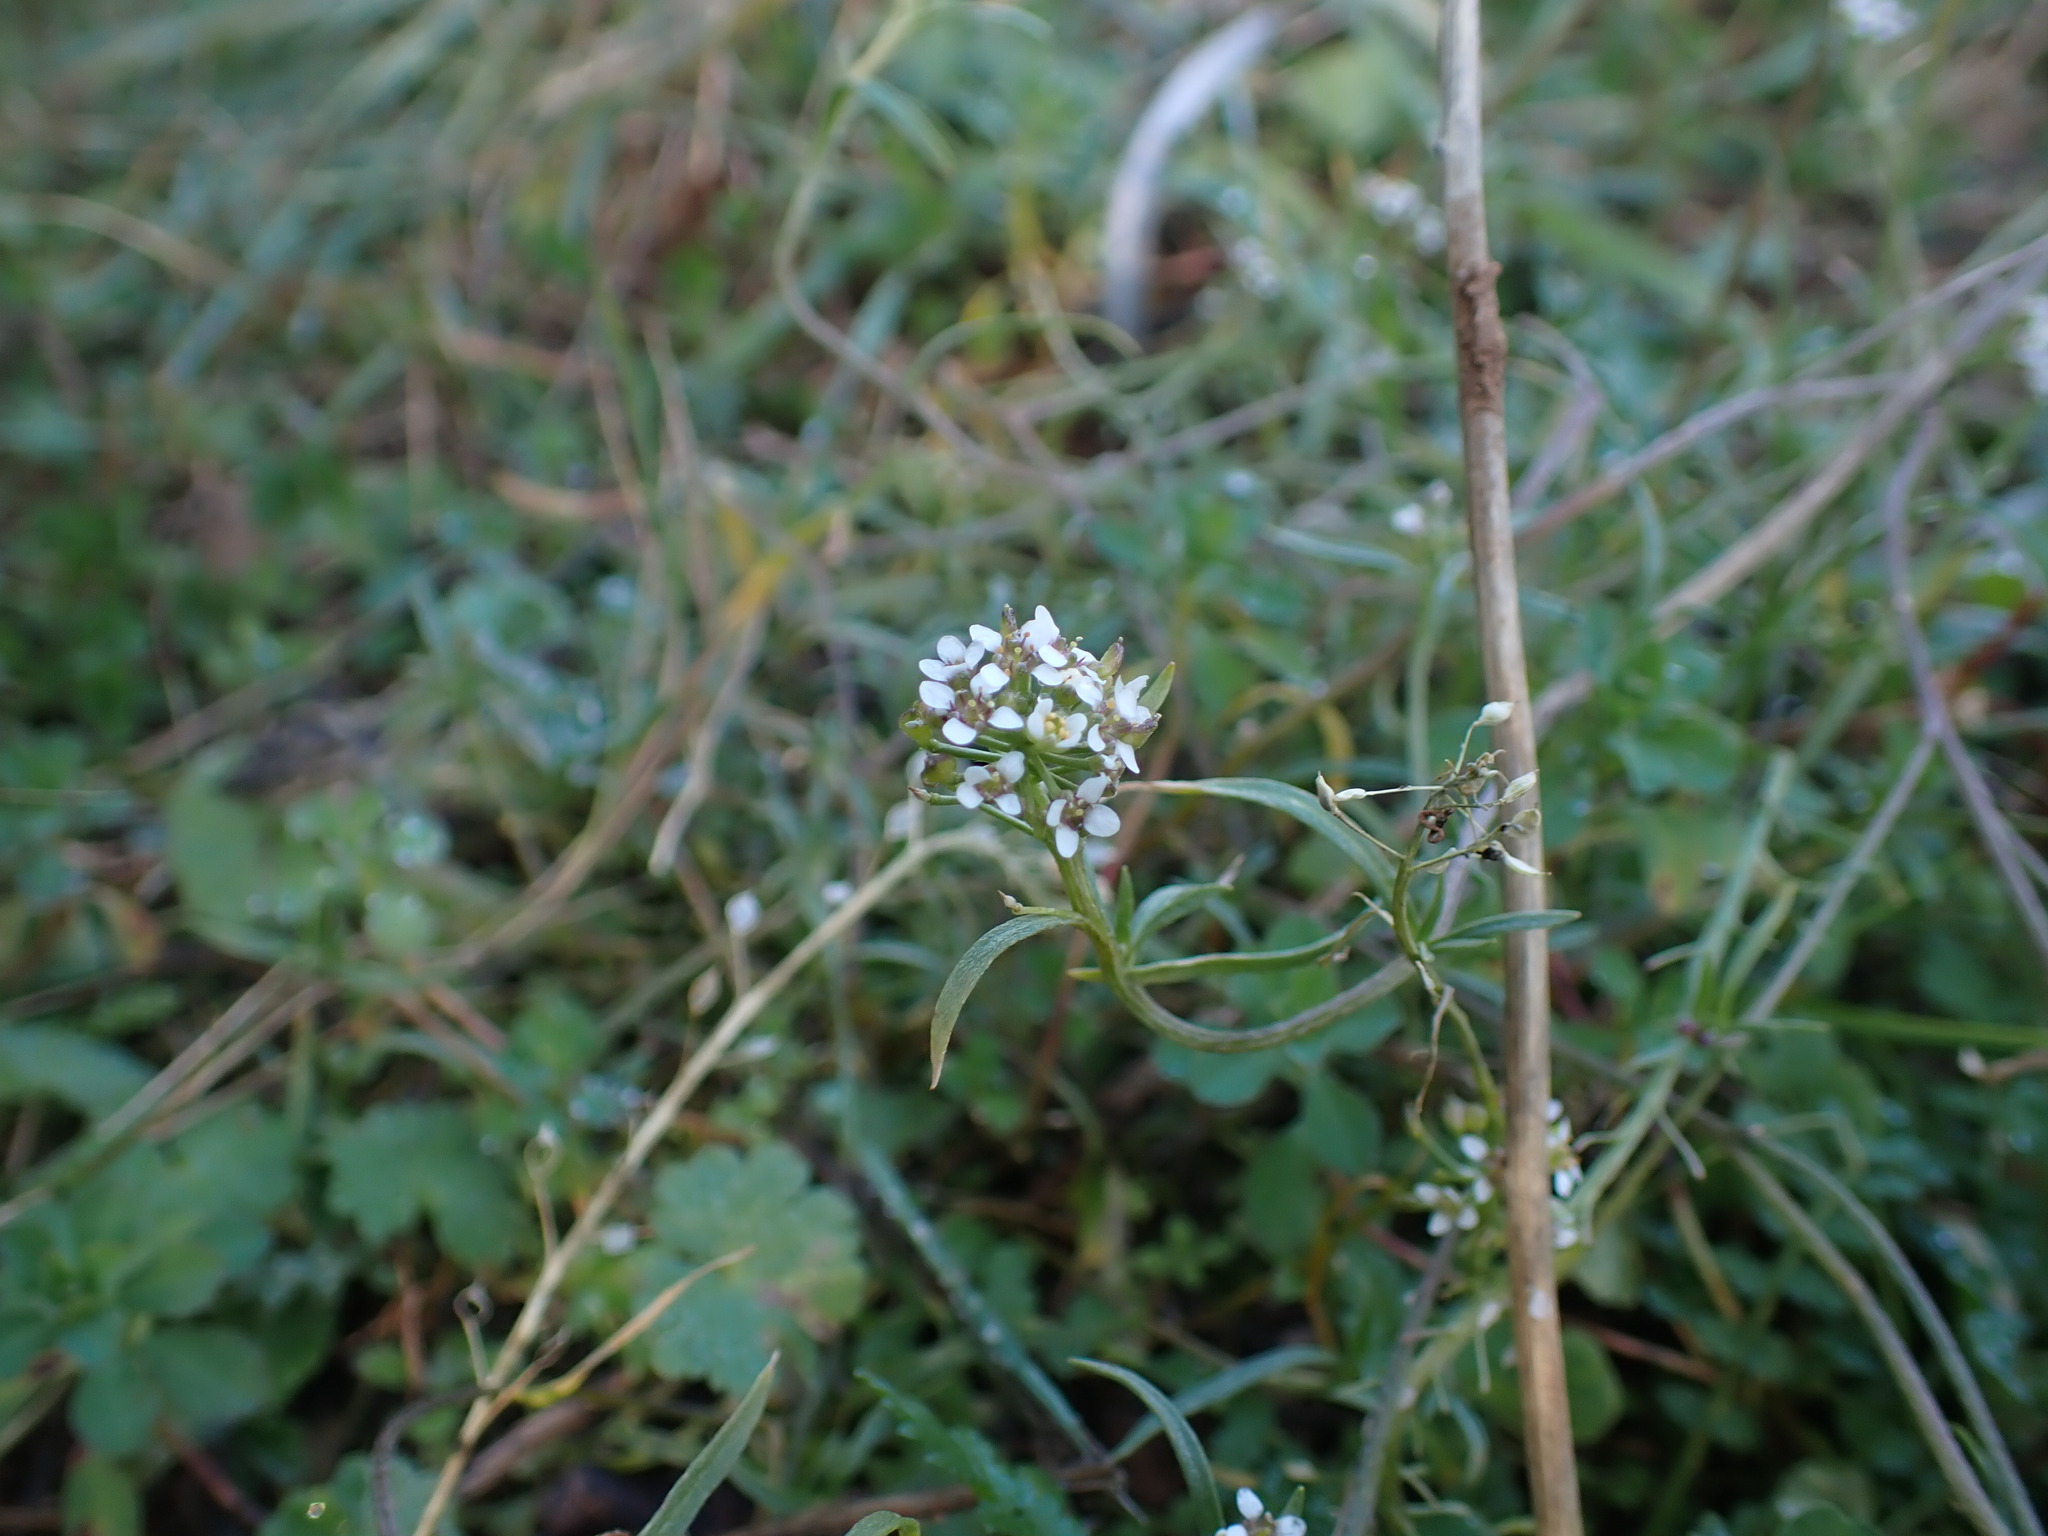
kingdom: Plantae
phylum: Tracheophyta
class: Magnoliopsida
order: Brassicales
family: Brassicaceae
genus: Lobularia
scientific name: Lobularia maritima
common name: Sweet alison
